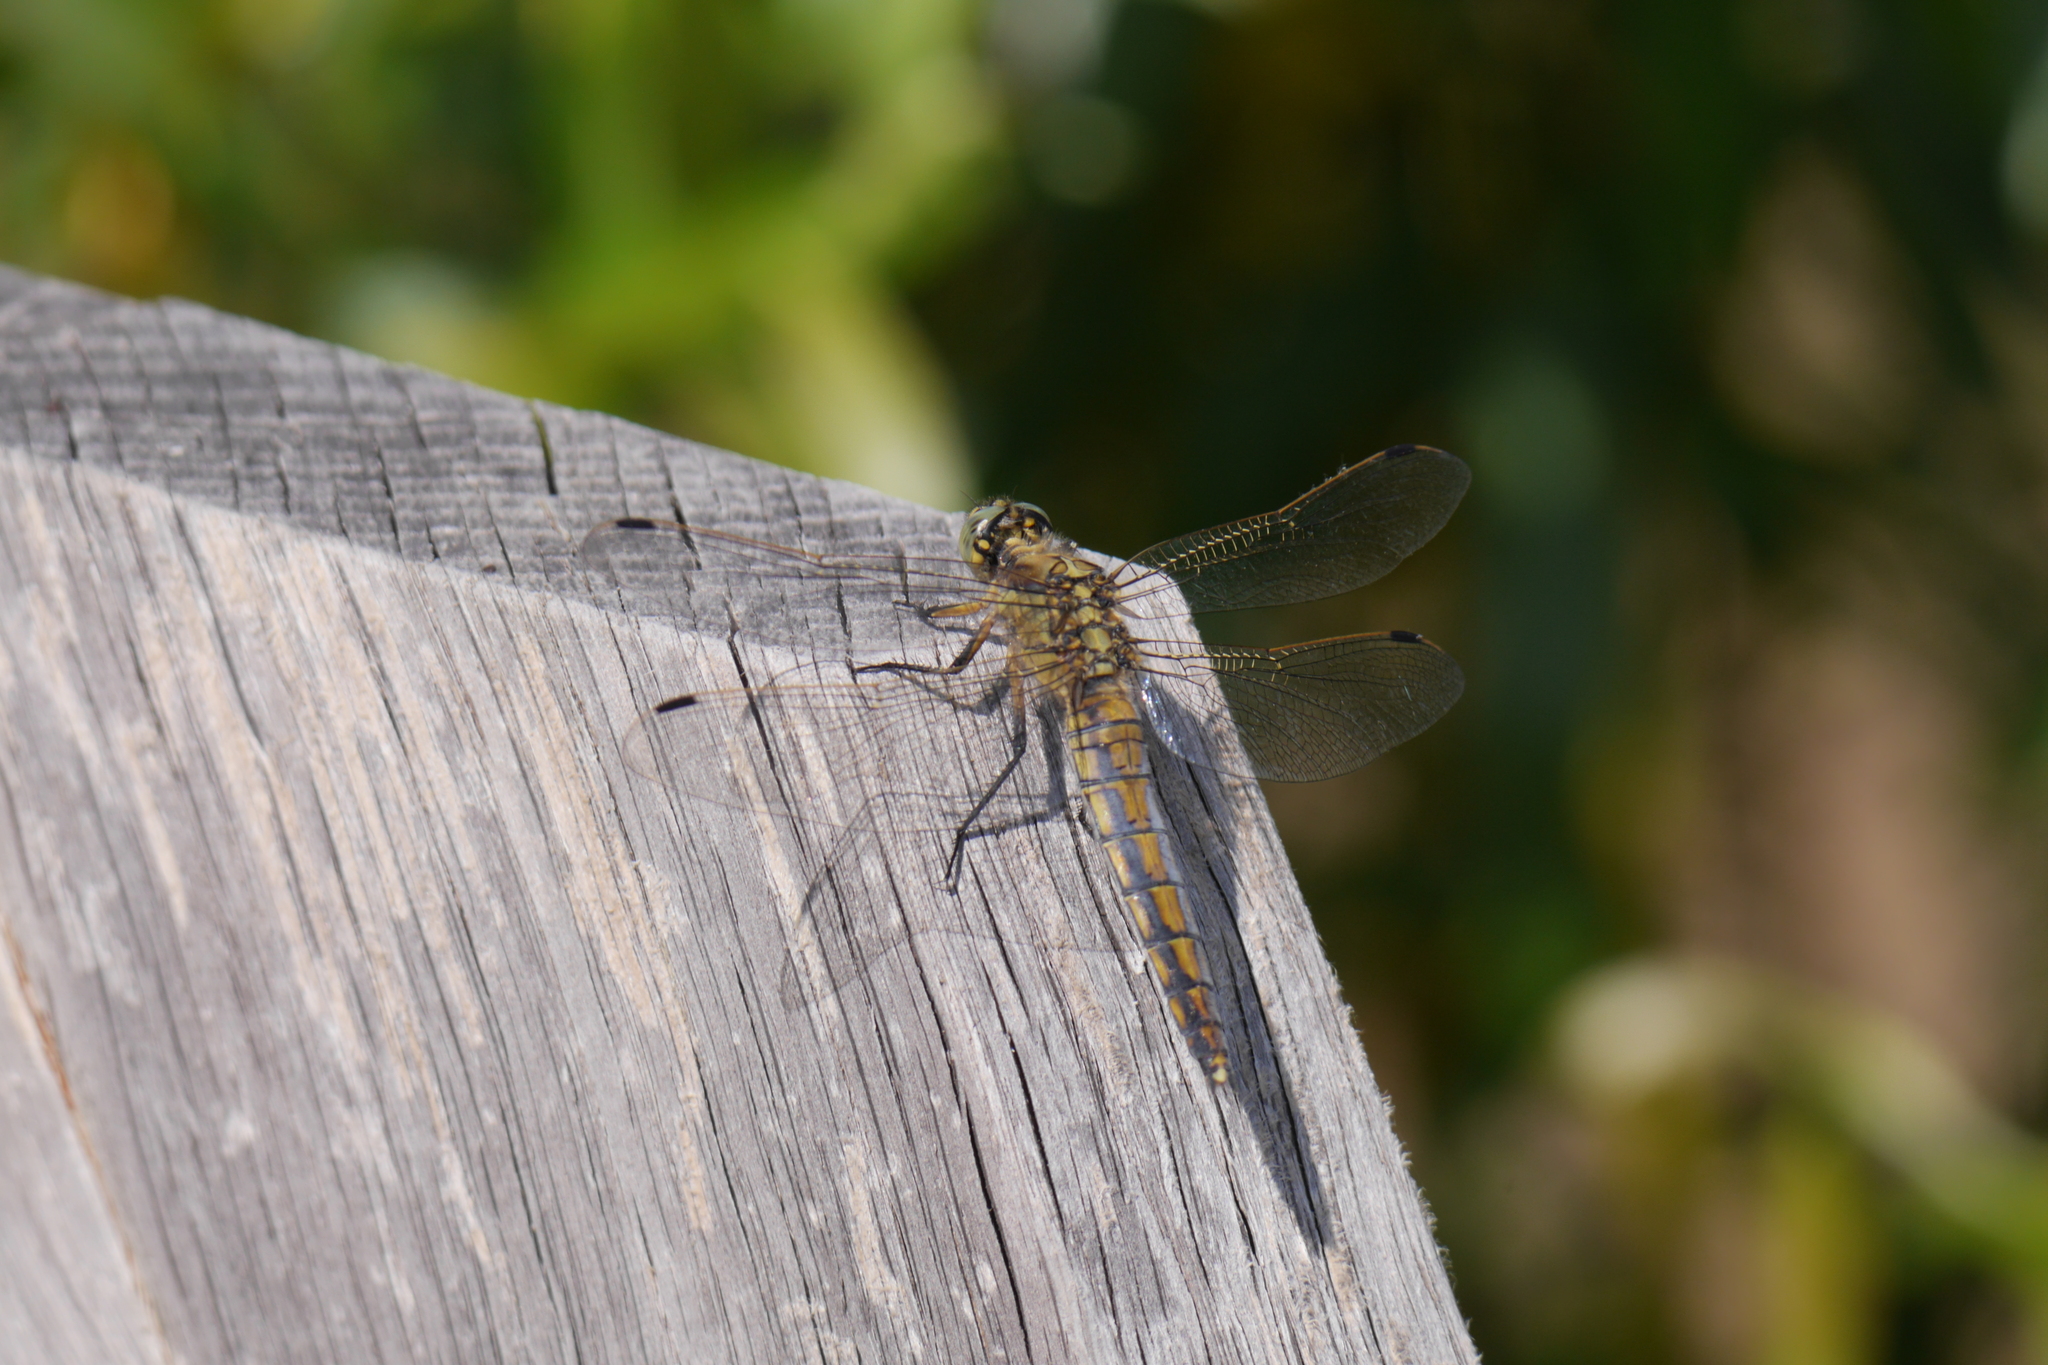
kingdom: Animalia
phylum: Arthropoda
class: Insecta
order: Odonata
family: Libellulidae
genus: Orthetrum
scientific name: Orthetrum cancellatum
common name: Black-tailed skimmer
